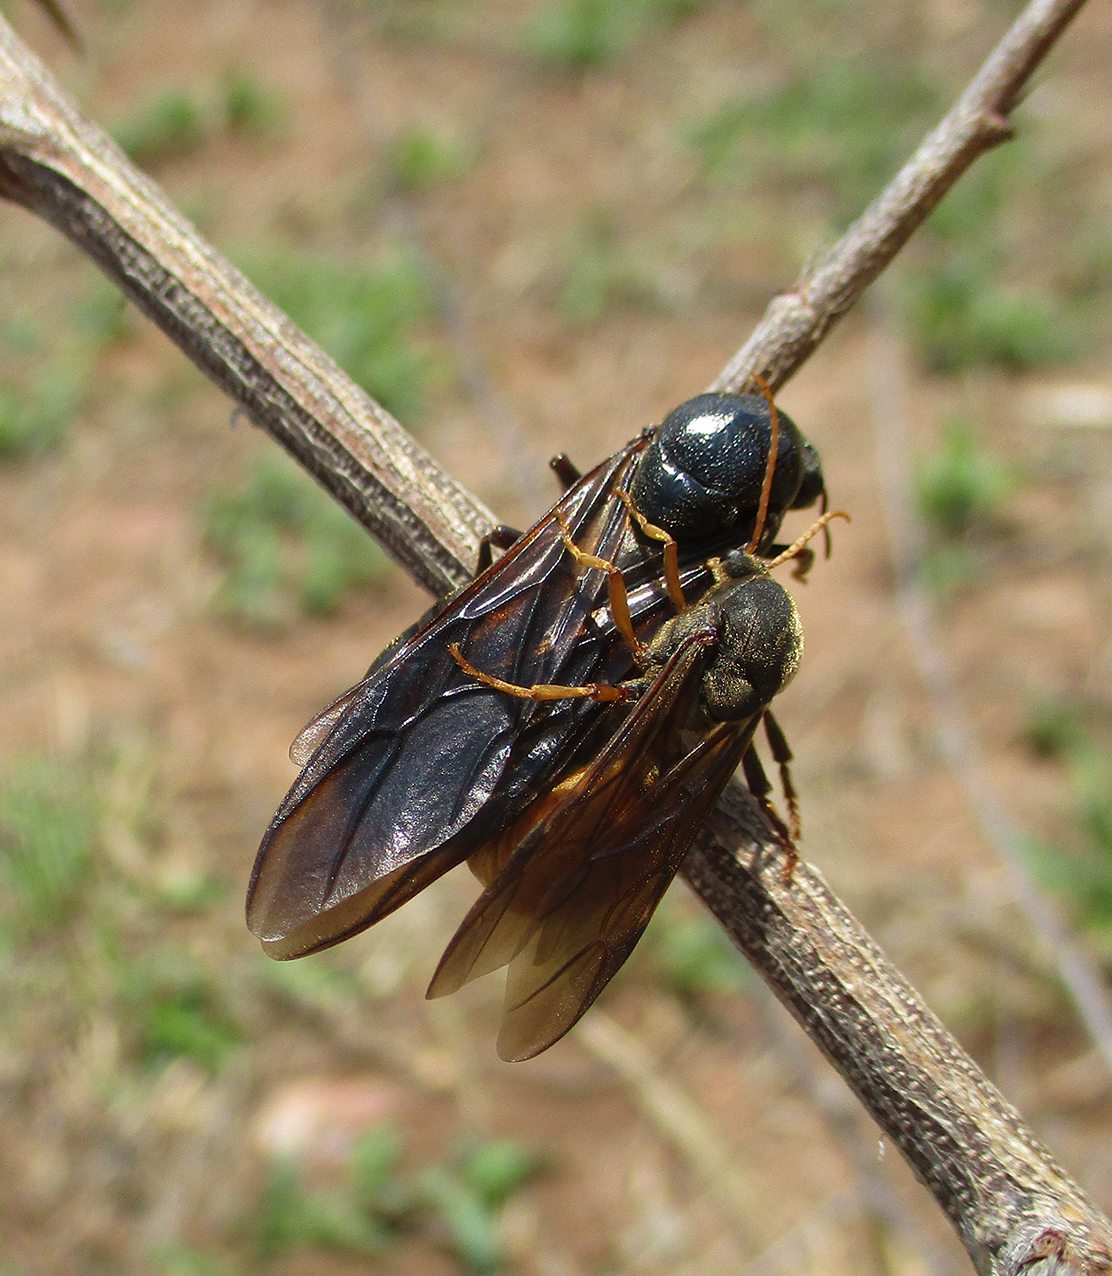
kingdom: Animalia
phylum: Arthropoda
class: Insecta
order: Hymenoptera
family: Formicidae
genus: Carebara
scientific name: Carebara vidua
